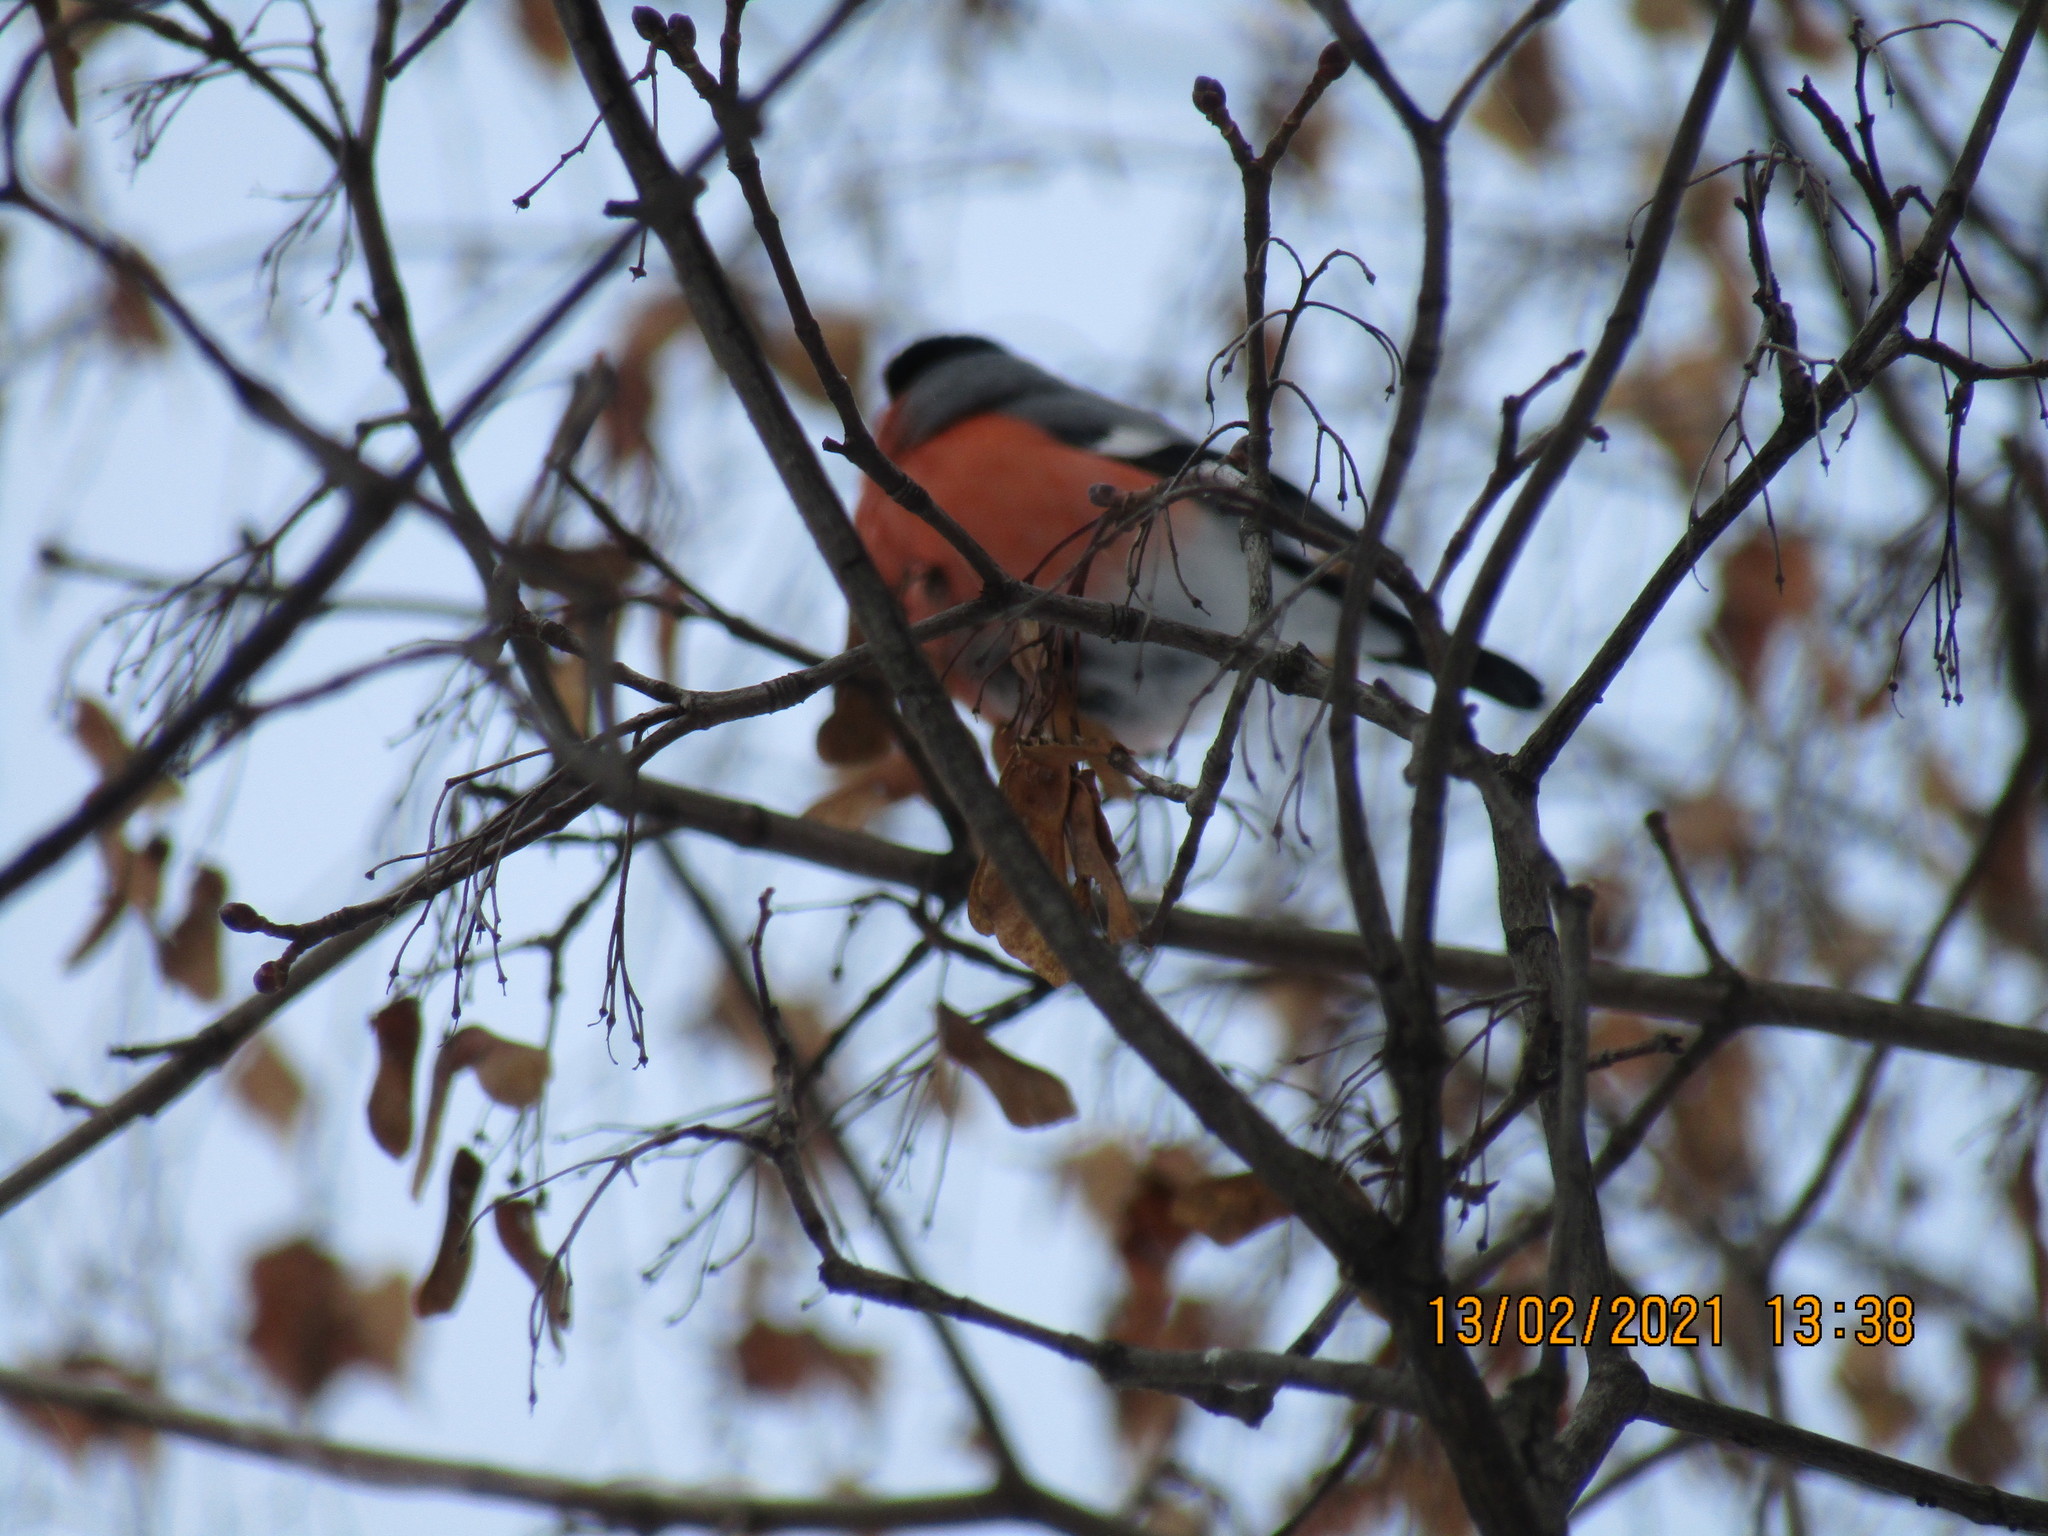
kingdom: Animalia
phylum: Chordata
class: Aves
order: Passeriformes
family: Fringillidae
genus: Pyrrhula
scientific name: Pyrrhula pyrrhula
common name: Eurasian bullfinch
